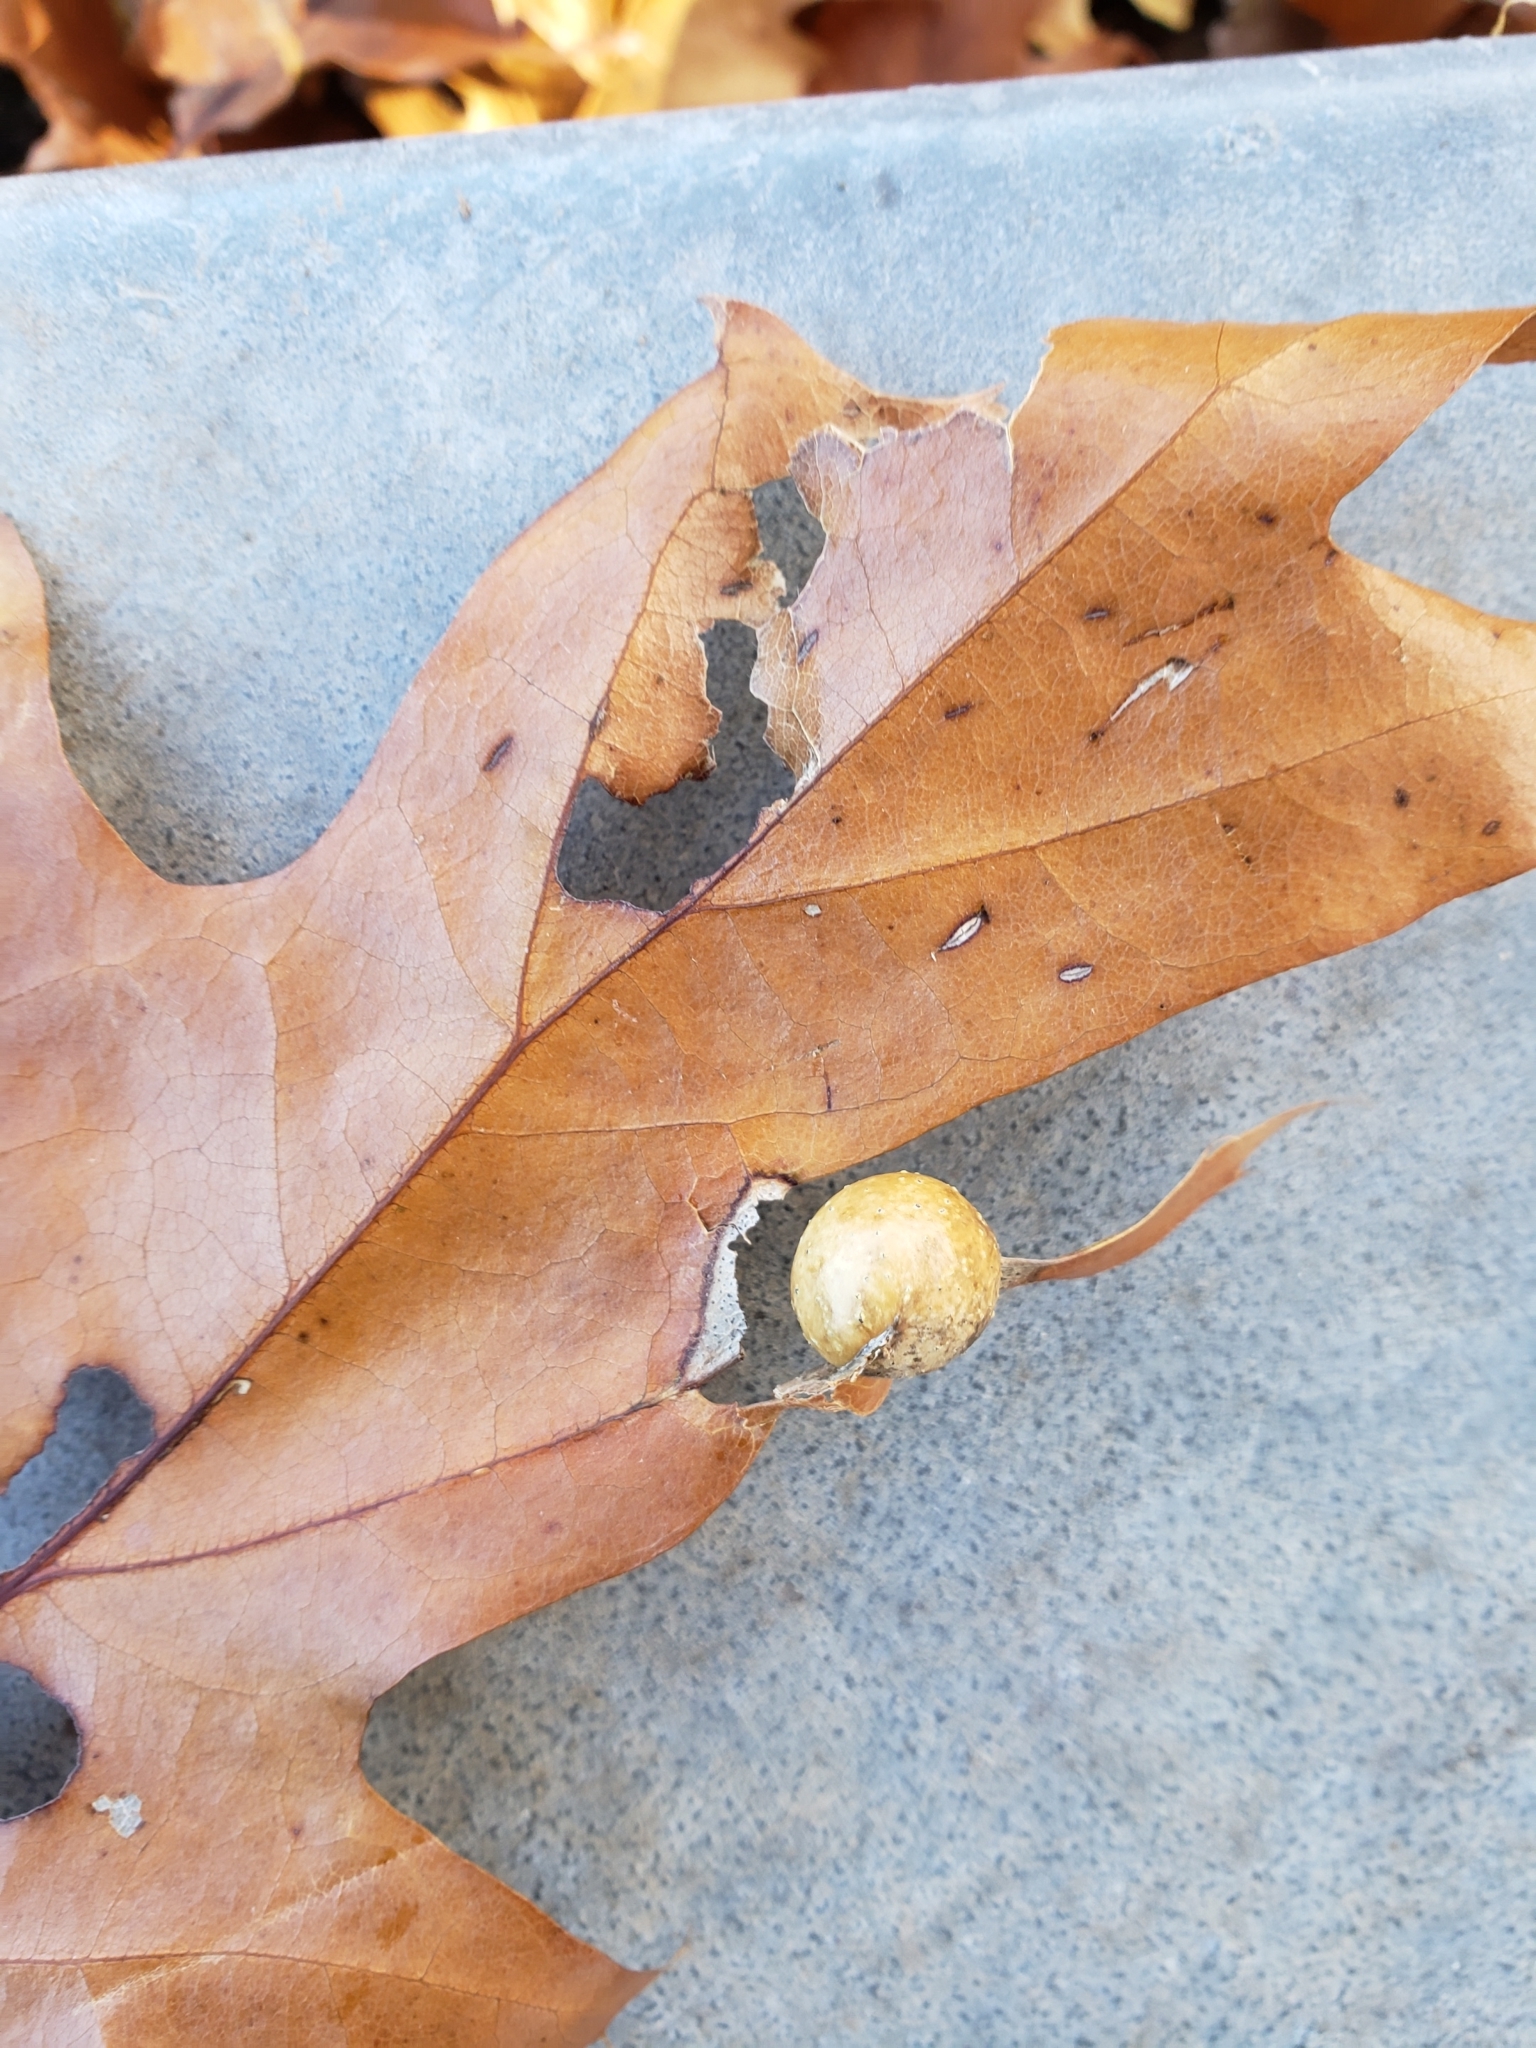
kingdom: Animalia
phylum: Arthropoda
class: Insecta
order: Hymenoptera
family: Cynipidae
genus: Amphibolips
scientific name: Amphibolips
